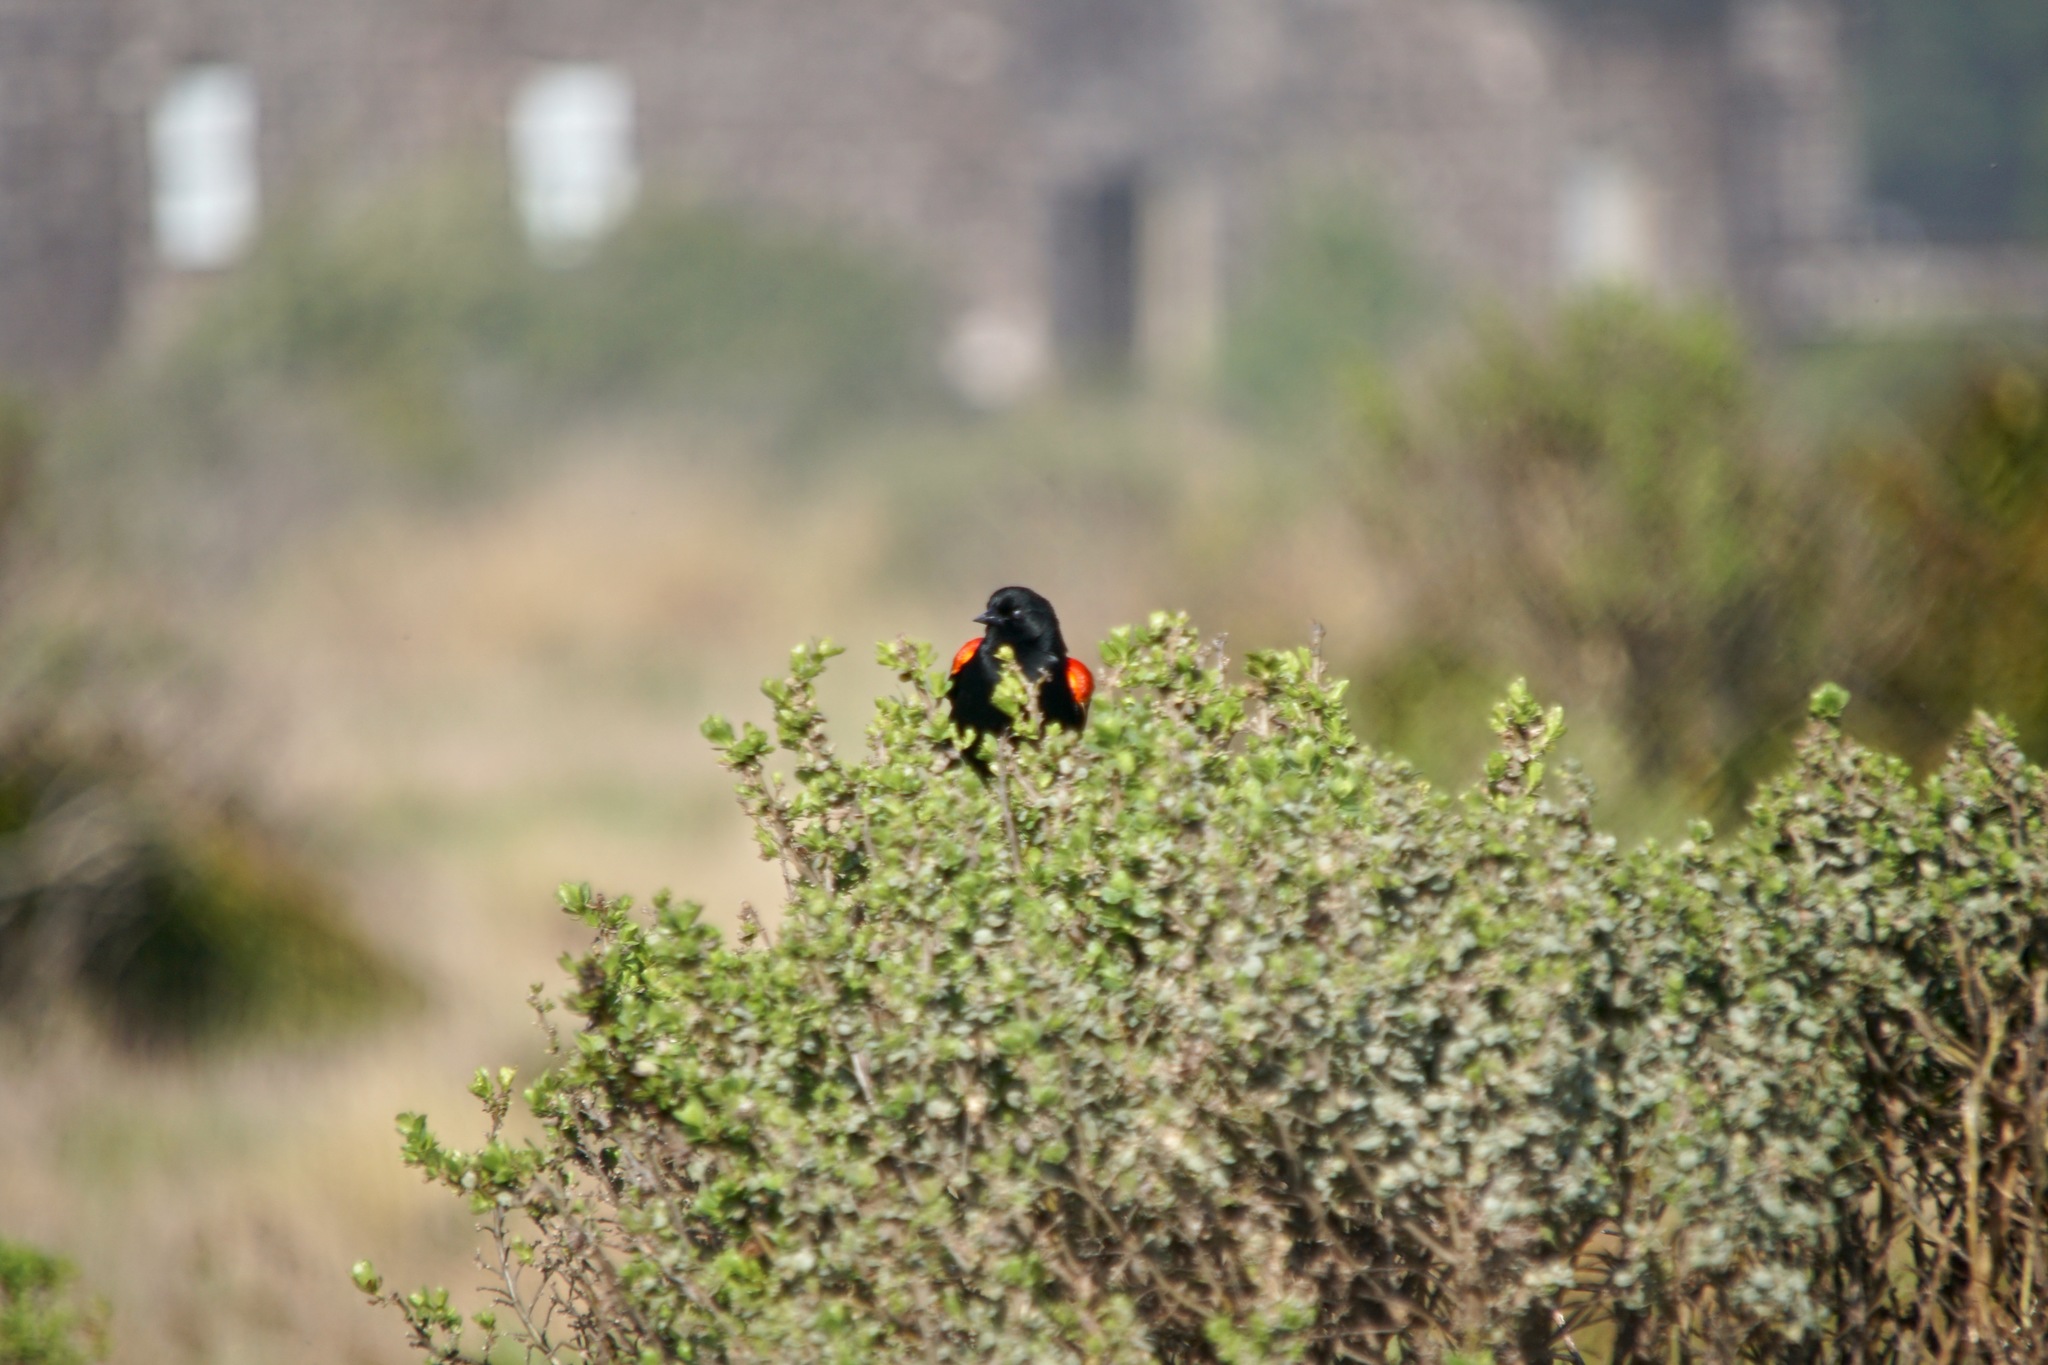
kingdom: Animalia
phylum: Chordata
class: Aves
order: Passeriformes
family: Icteridae
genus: Agelaius
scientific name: Agelaius phoeniceus
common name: Red-winged blackbird
